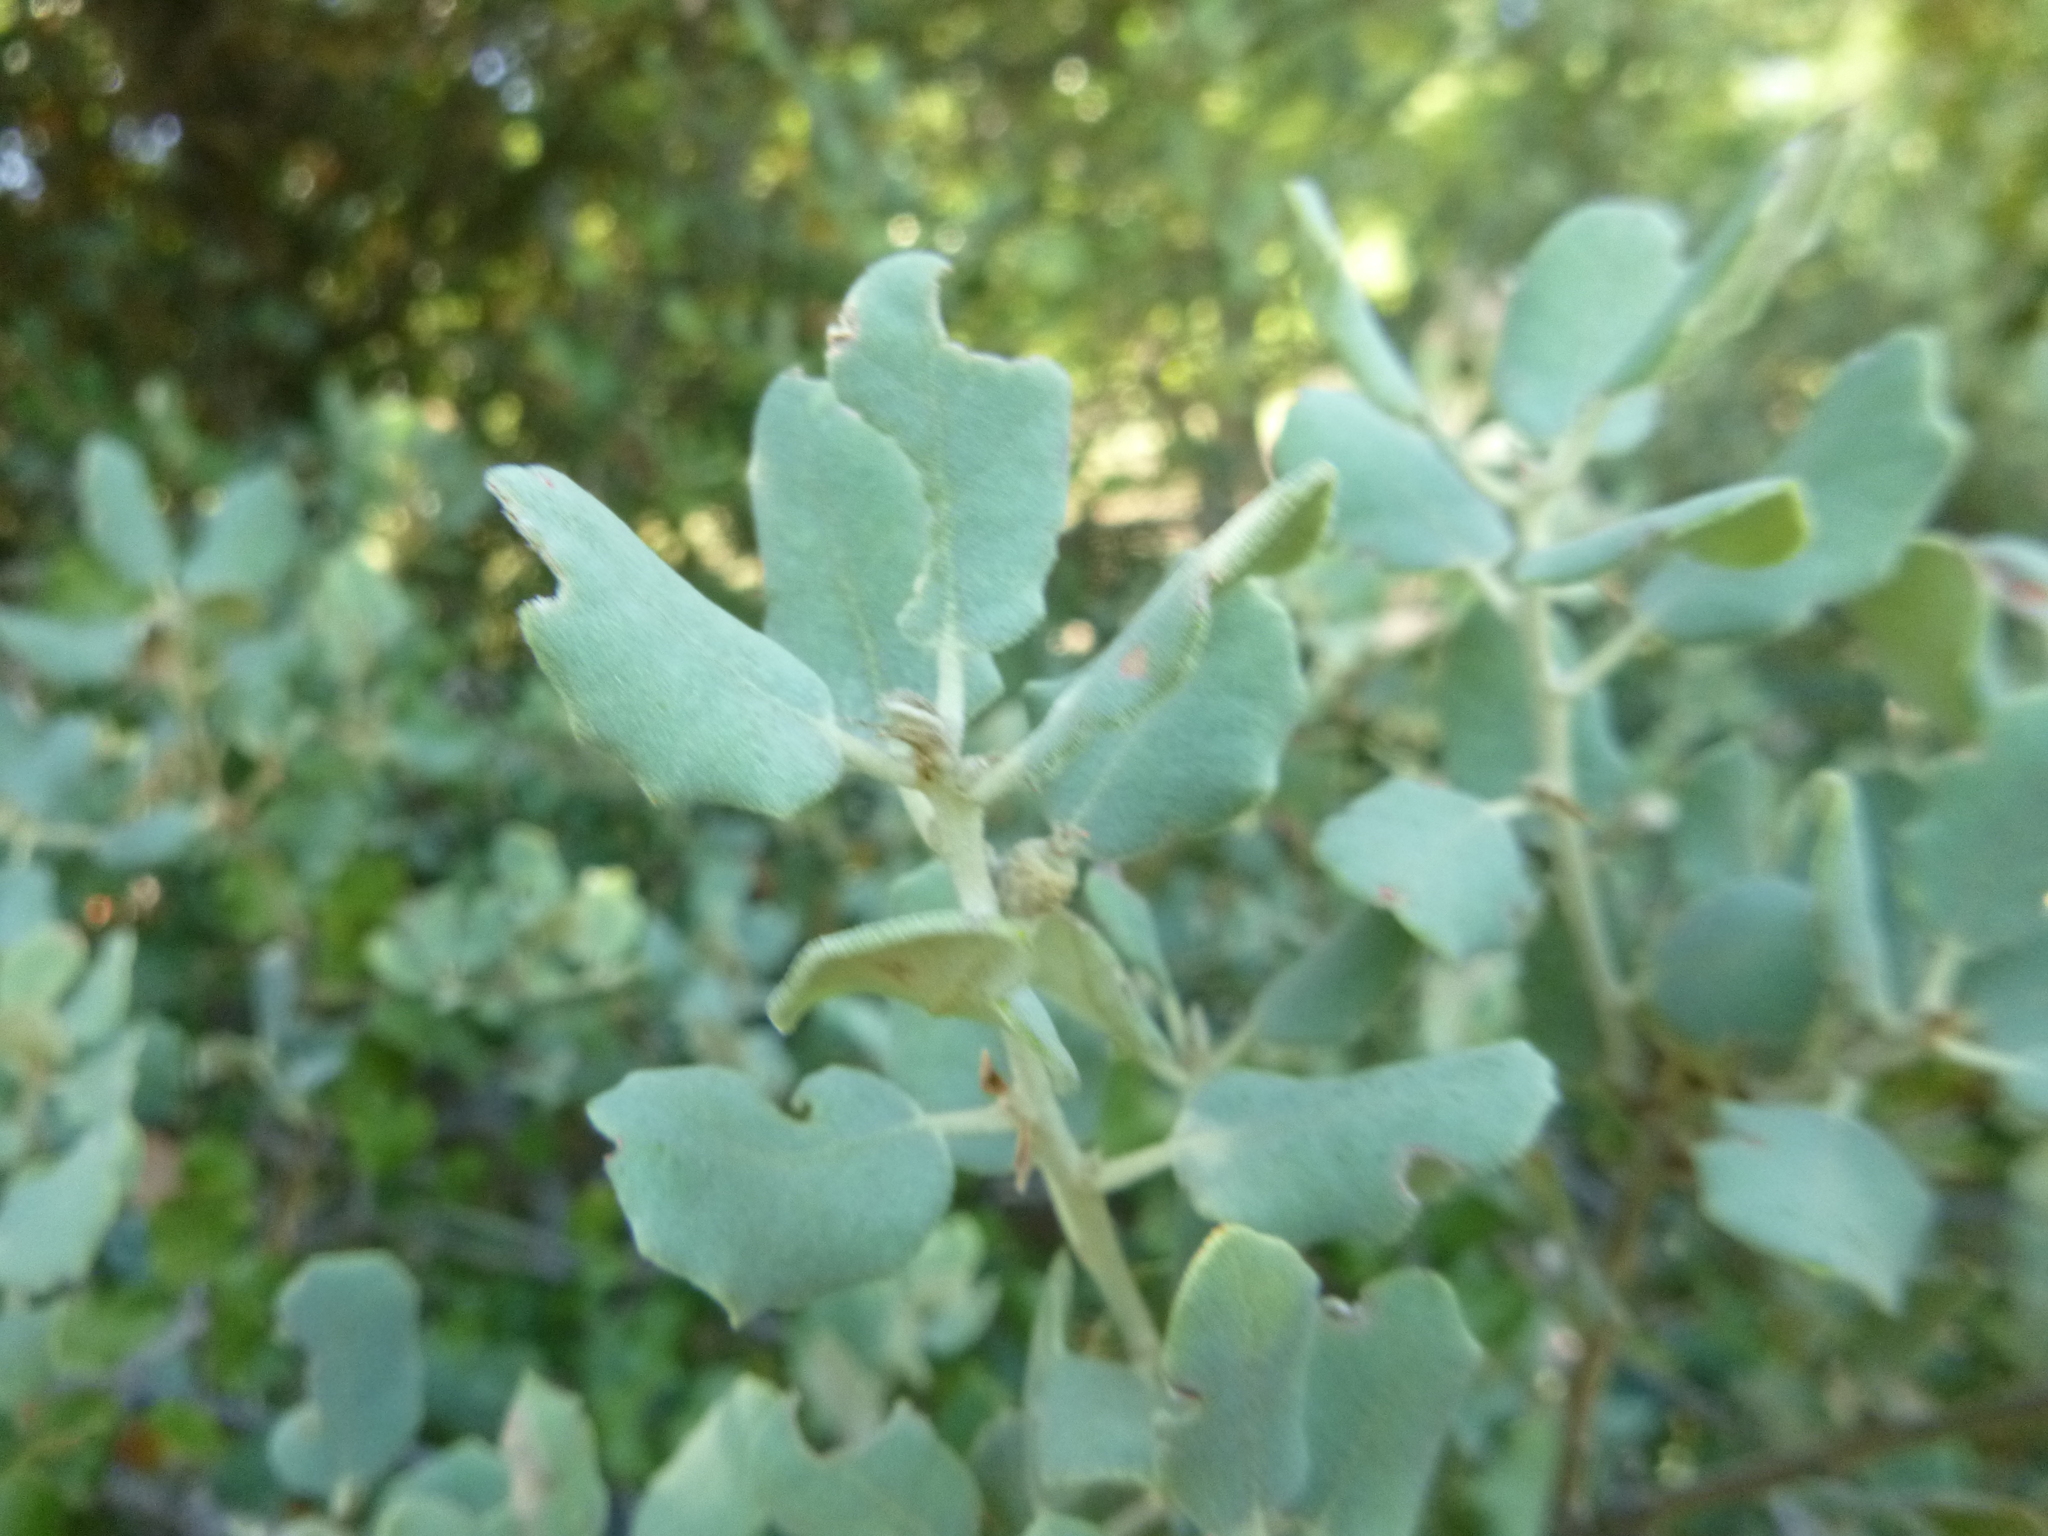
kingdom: Plantae
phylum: Tracheophyta
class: Magnoliopsida
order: Fagales
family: Fagaceae
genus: Quercus
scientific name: Quercus rotundifolia
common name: Holm oak
